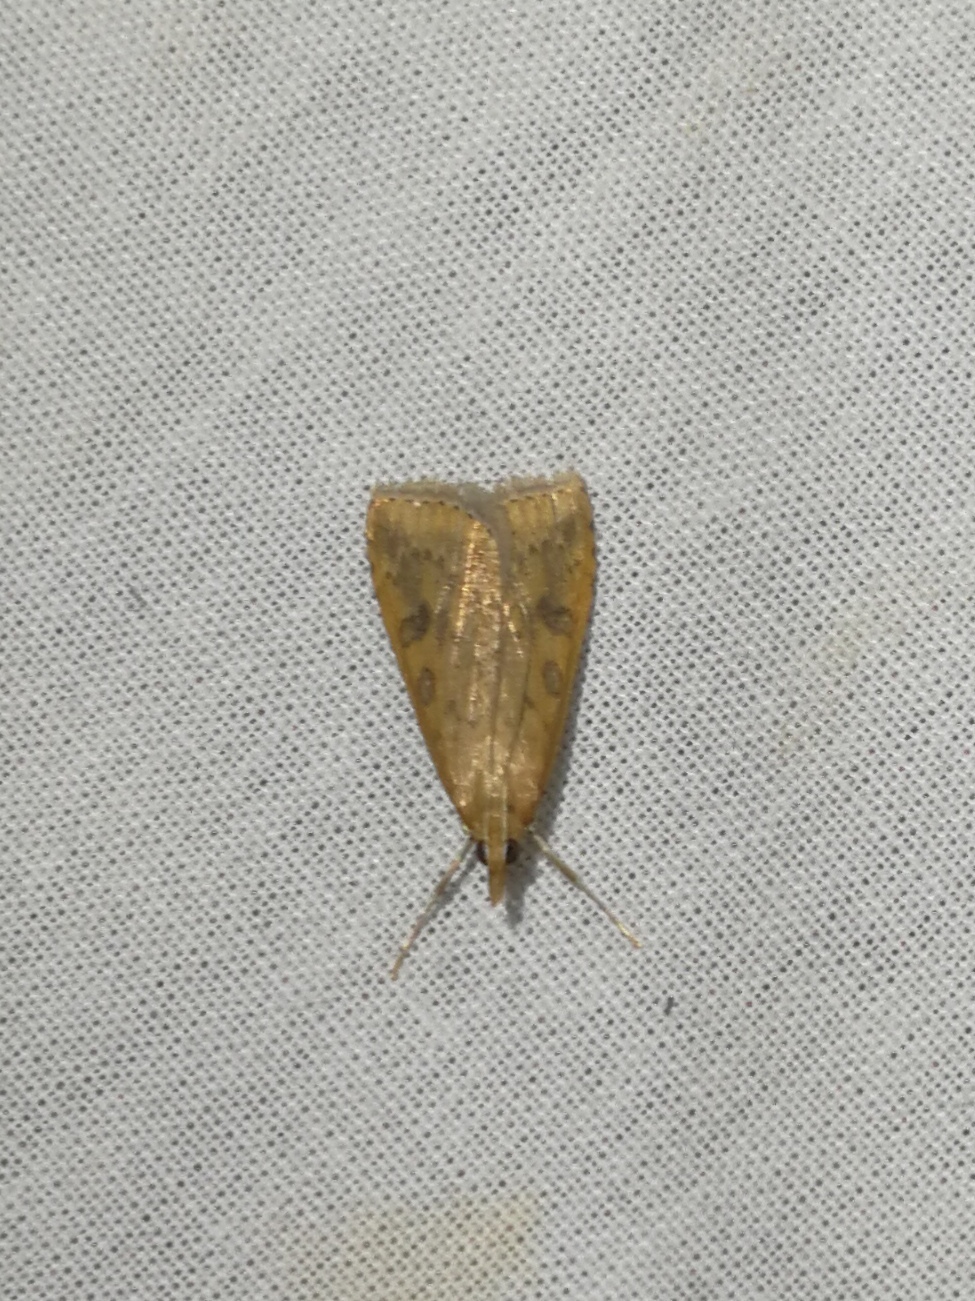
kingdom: Animalia
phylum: Arthropoda
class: Insecta
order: Lepidoptera
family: Crambidae
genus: Udea
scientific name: Udea ferrugalis
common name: Rusty dot
